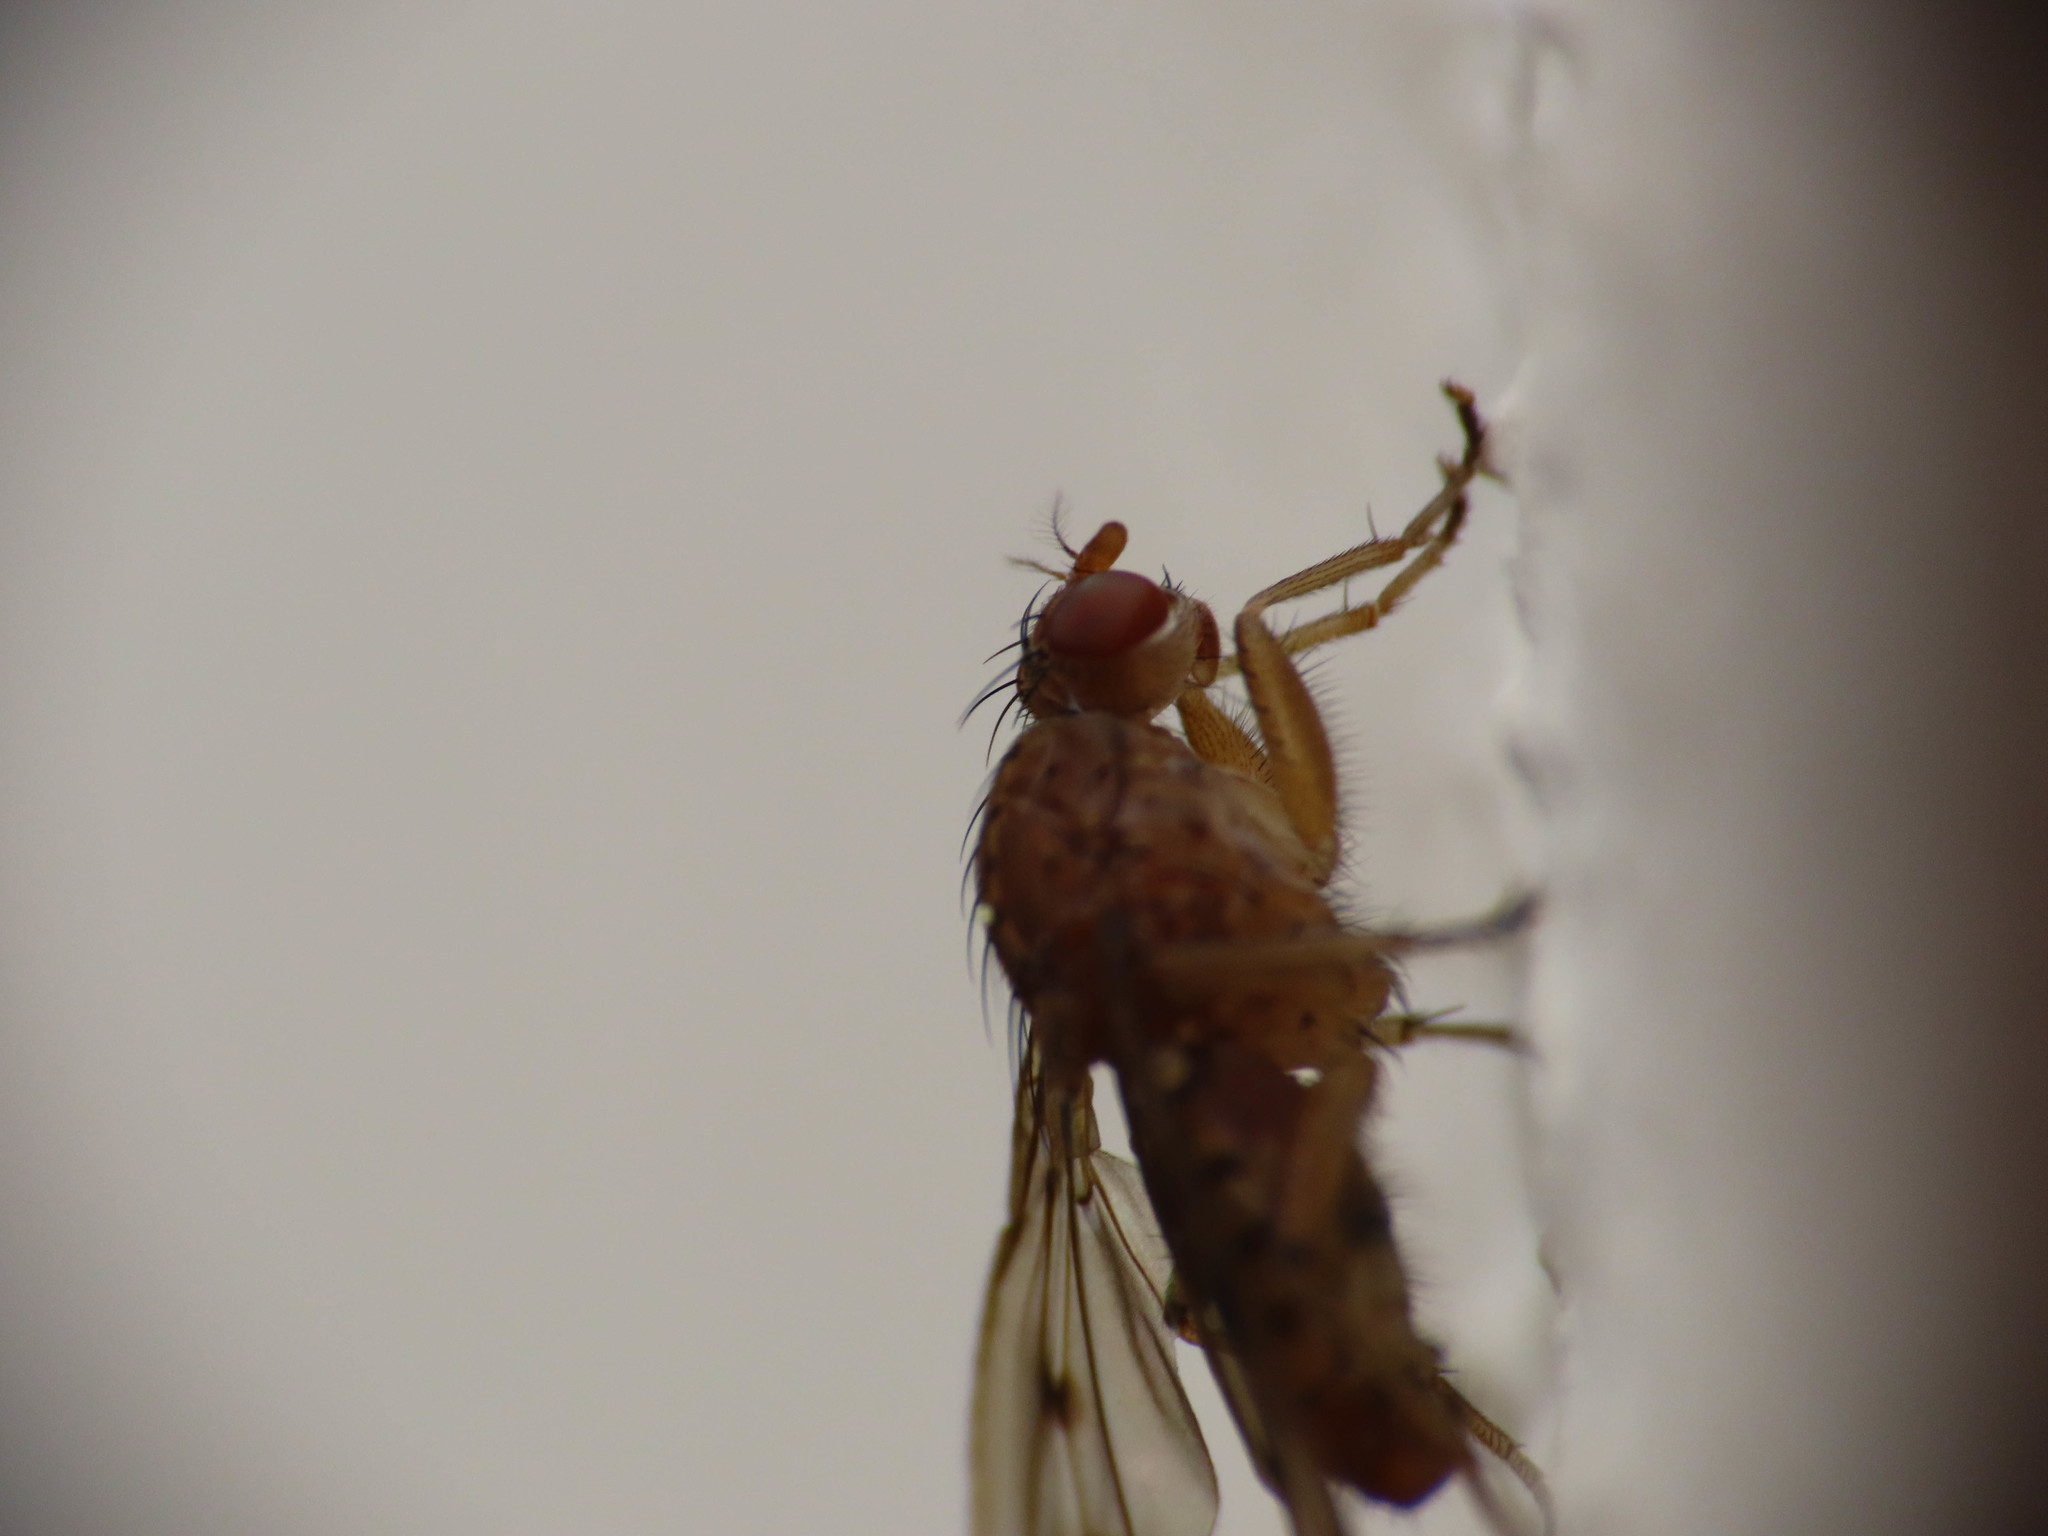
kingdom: Animalia
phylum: Arthropoda
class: Insecta
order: Diptera
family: Heleomyzidae
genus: Suillia
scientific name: Suillia variegata
